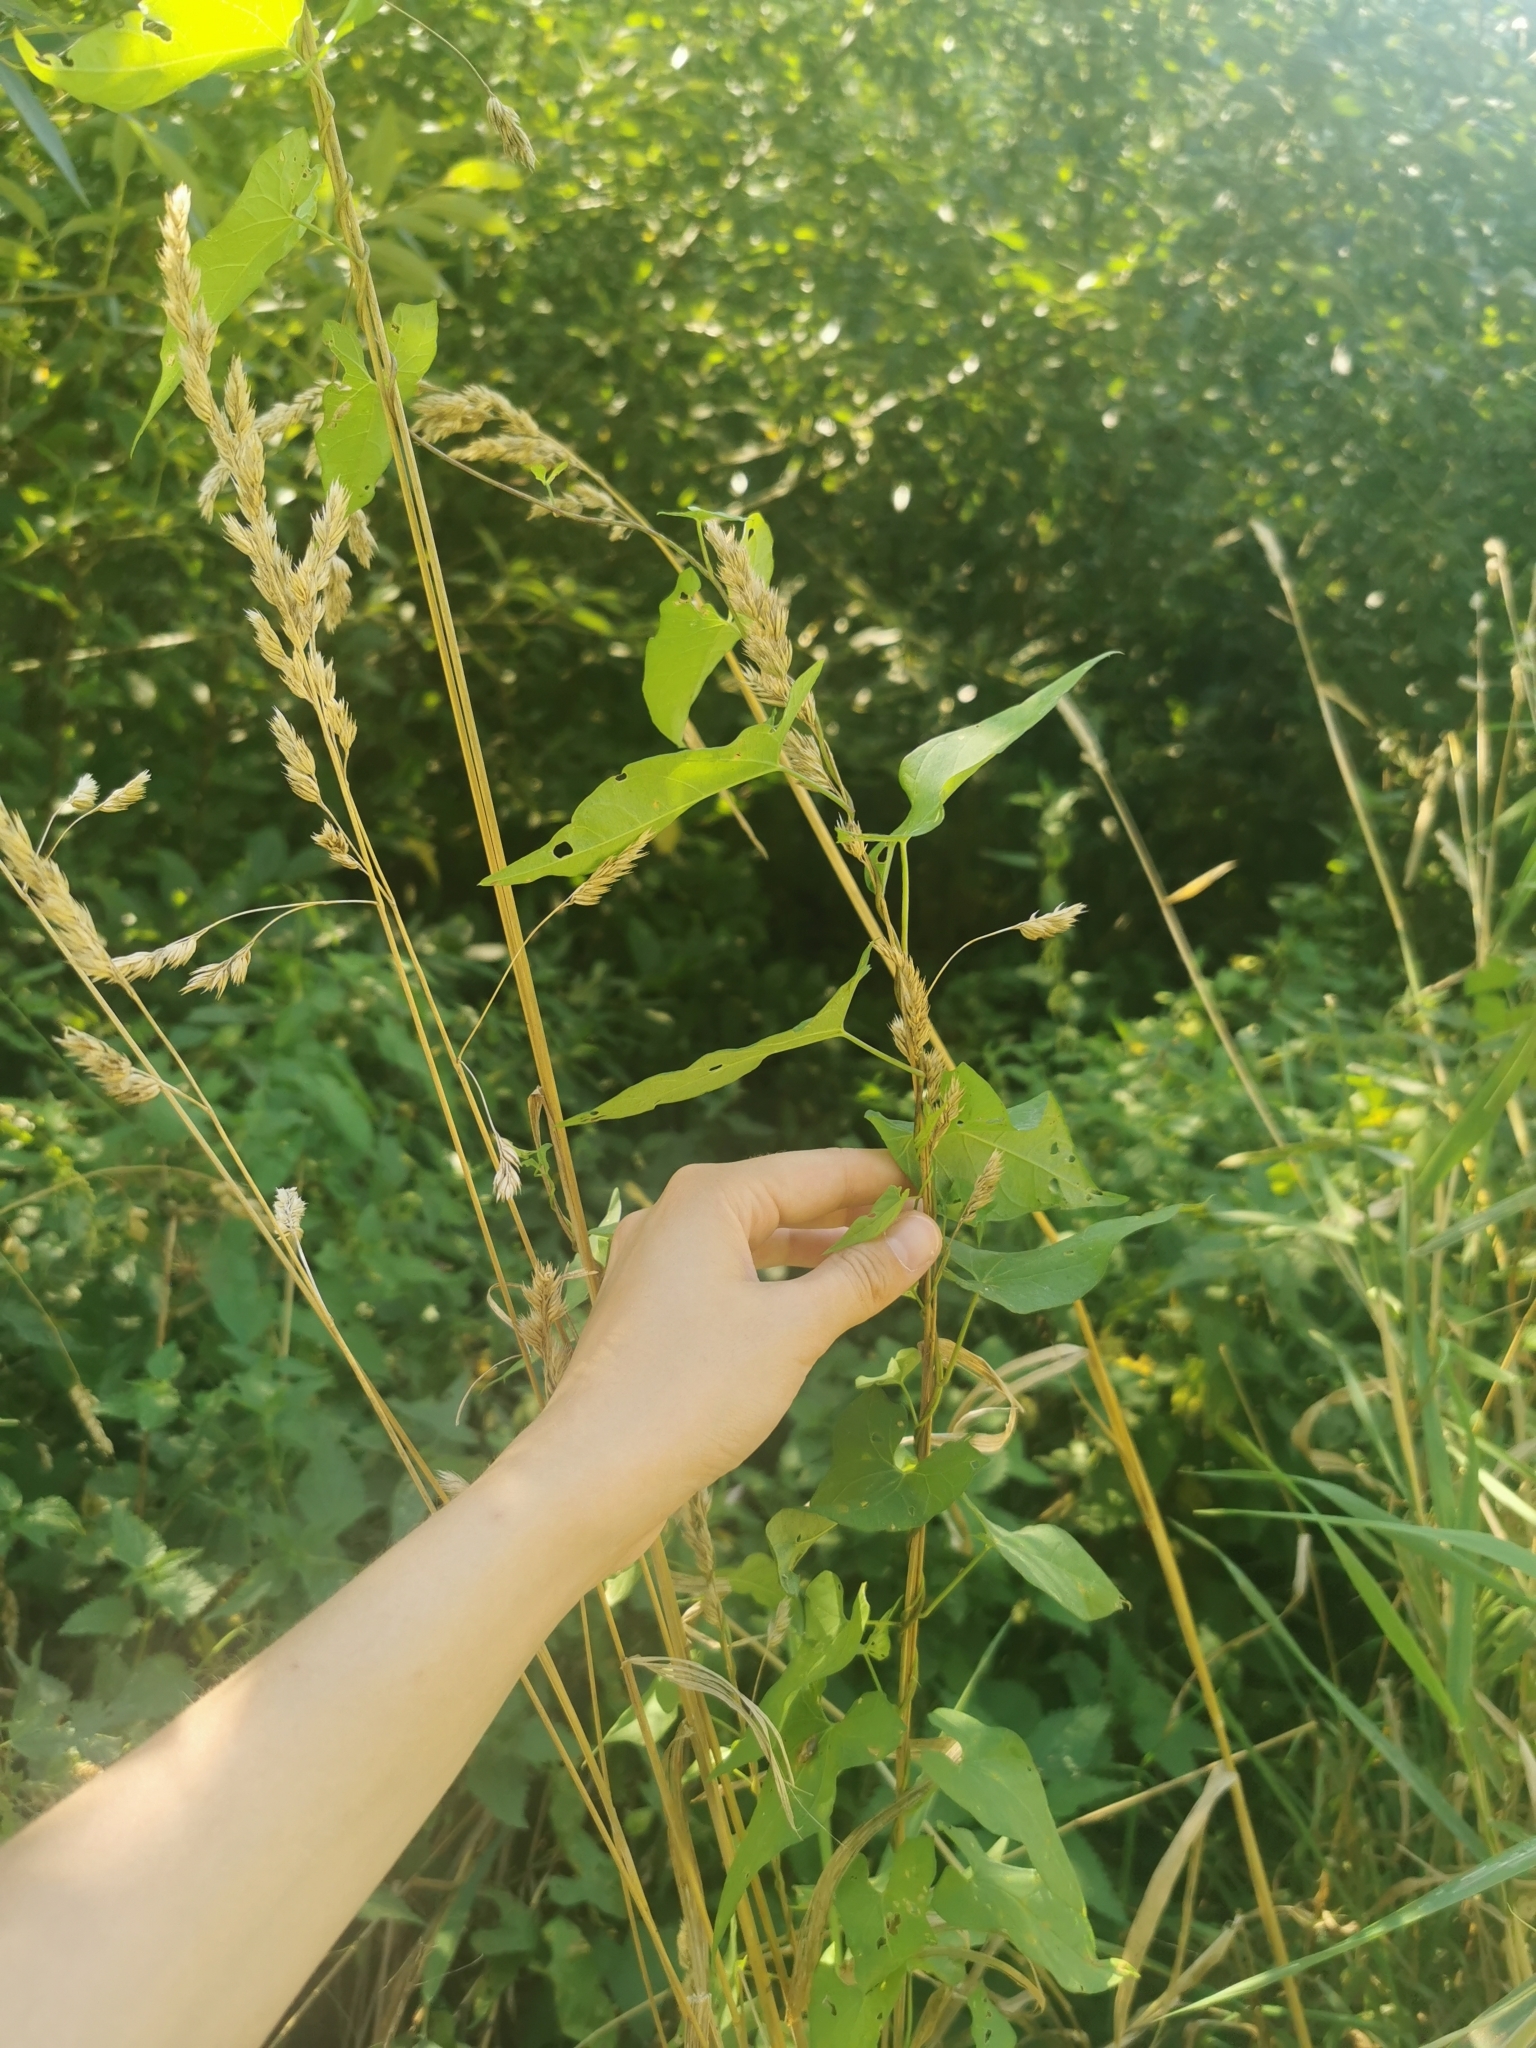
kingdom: Plantae
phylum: Tracheophyta
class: Magnoliopsida
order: Solanales
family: Convolvulaceae
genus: Calystegia
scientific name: Calystegia sepium
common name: Hedge bindweed
